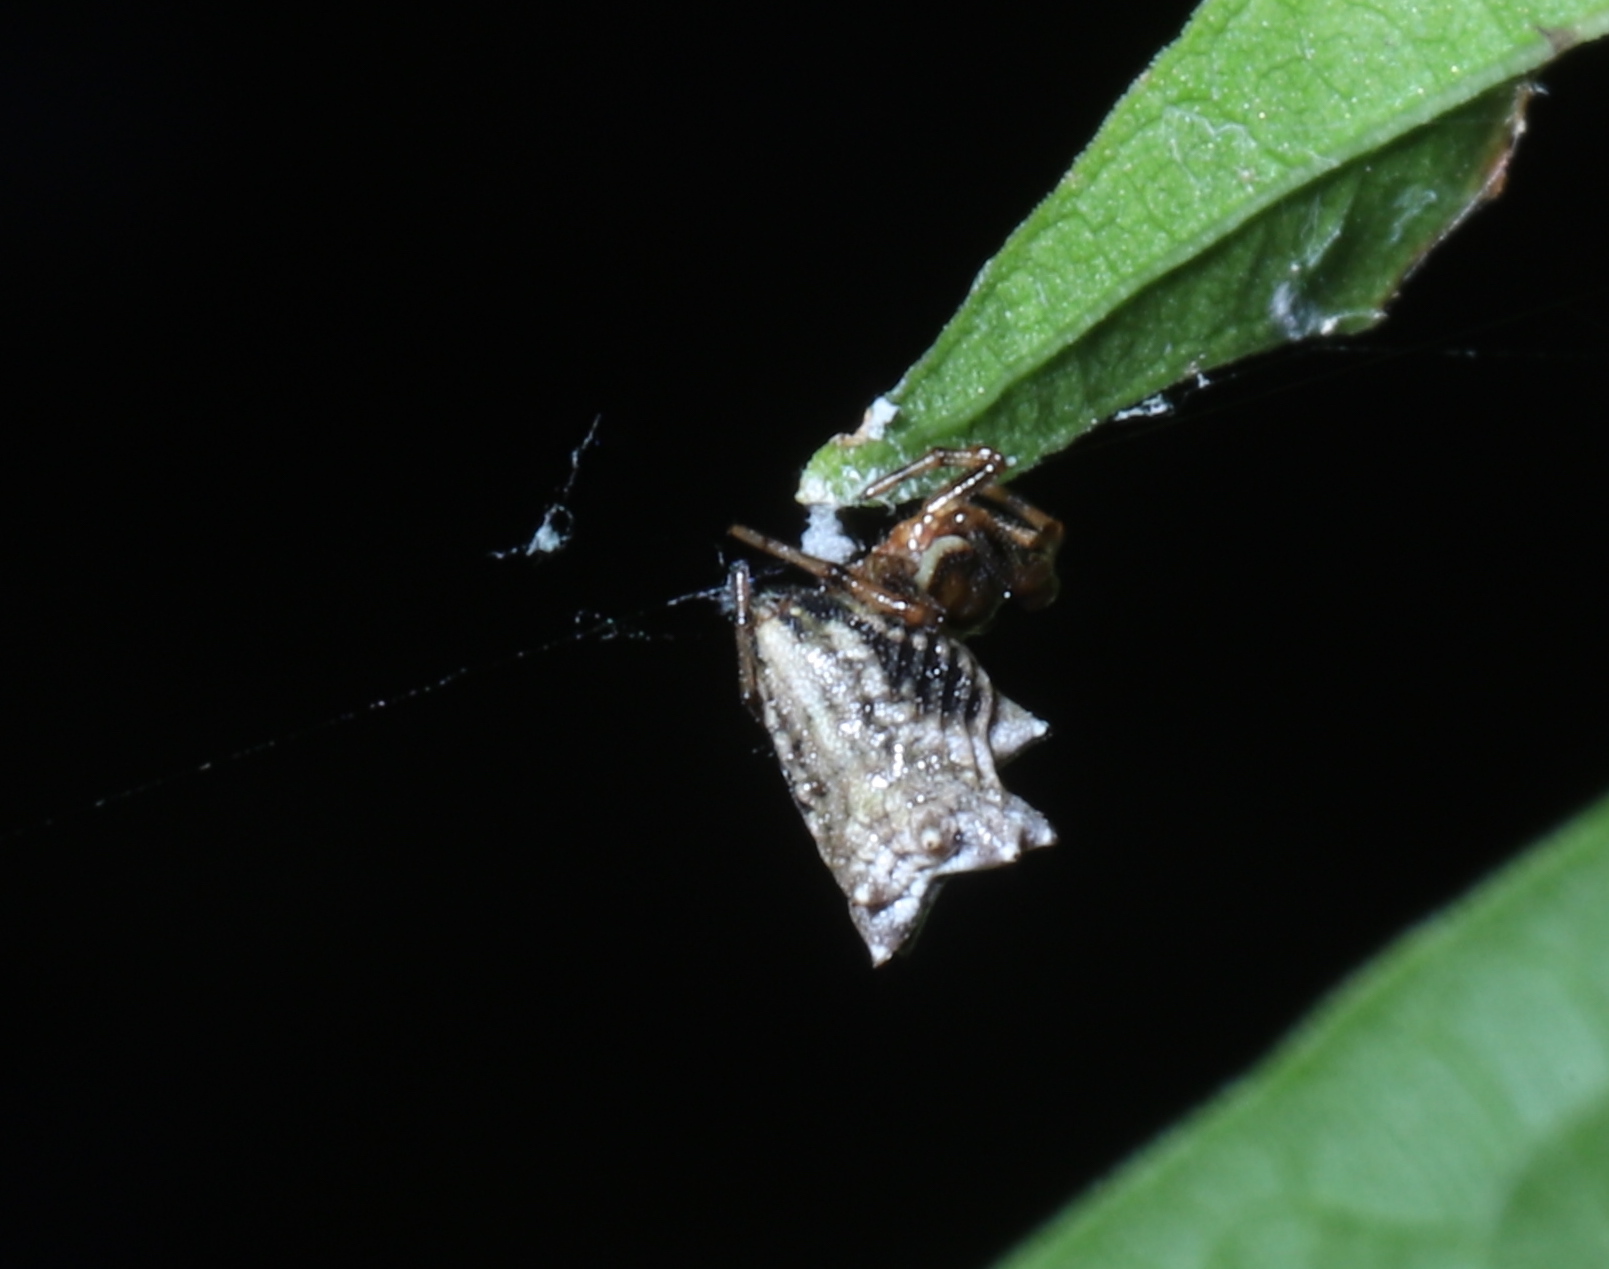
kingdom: Animalia
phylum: Arthropoda
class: Arachnida
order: Araneae
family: Araneidae
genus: Micrathena
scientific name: Micrathena gracilis
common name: Orb weavers
